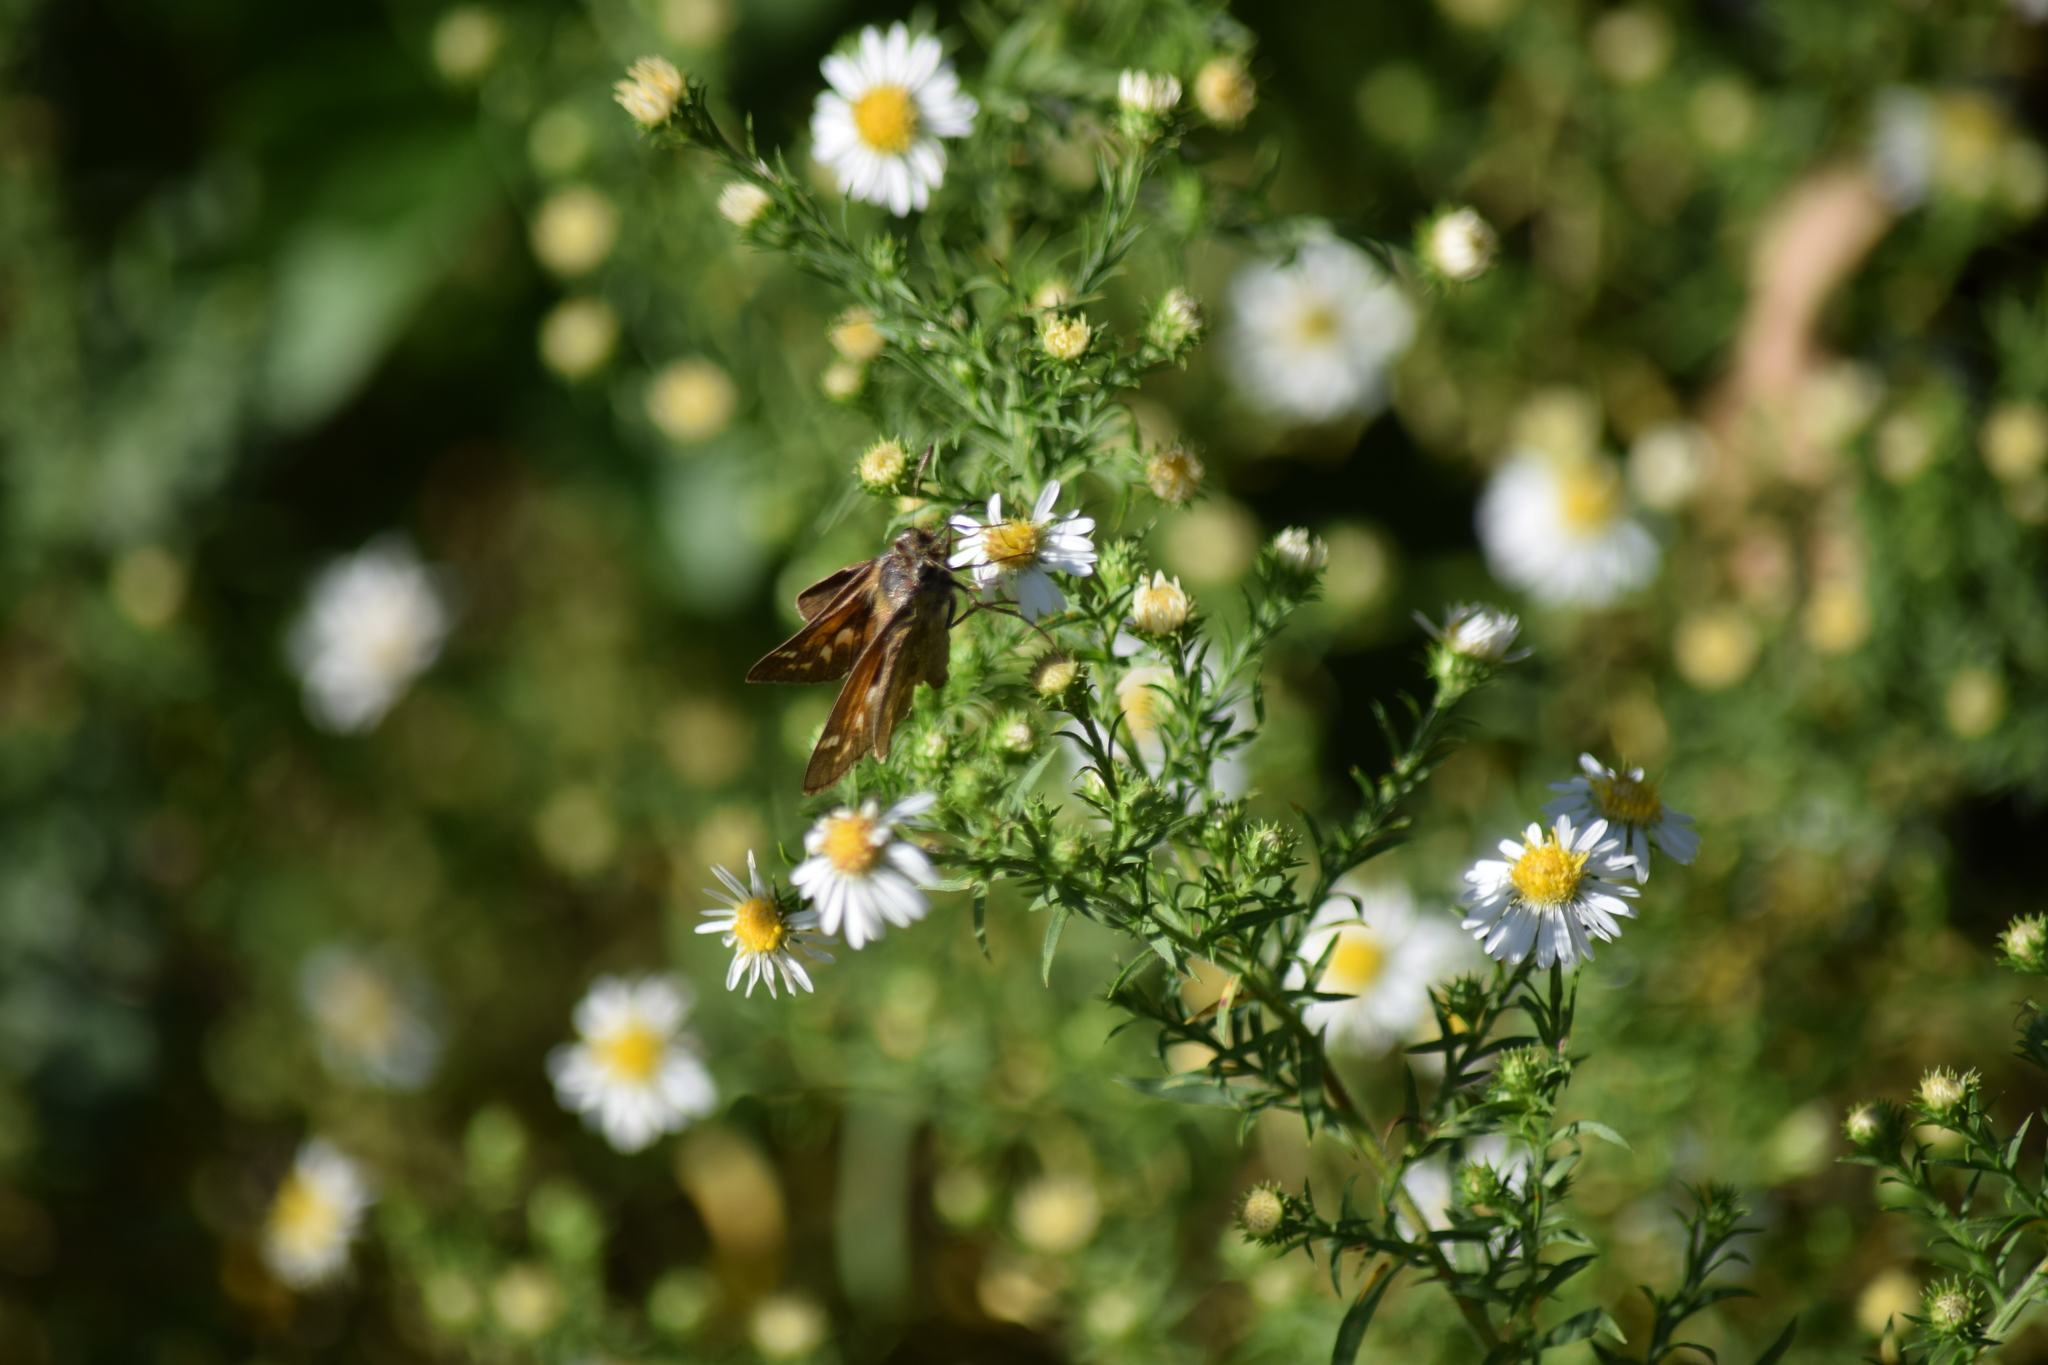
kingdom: Animalia
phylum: Arthropoda
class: Insecta
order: Lepidoptera
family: Hesperiidae
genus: Atalopedes
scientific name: Atalopedes
